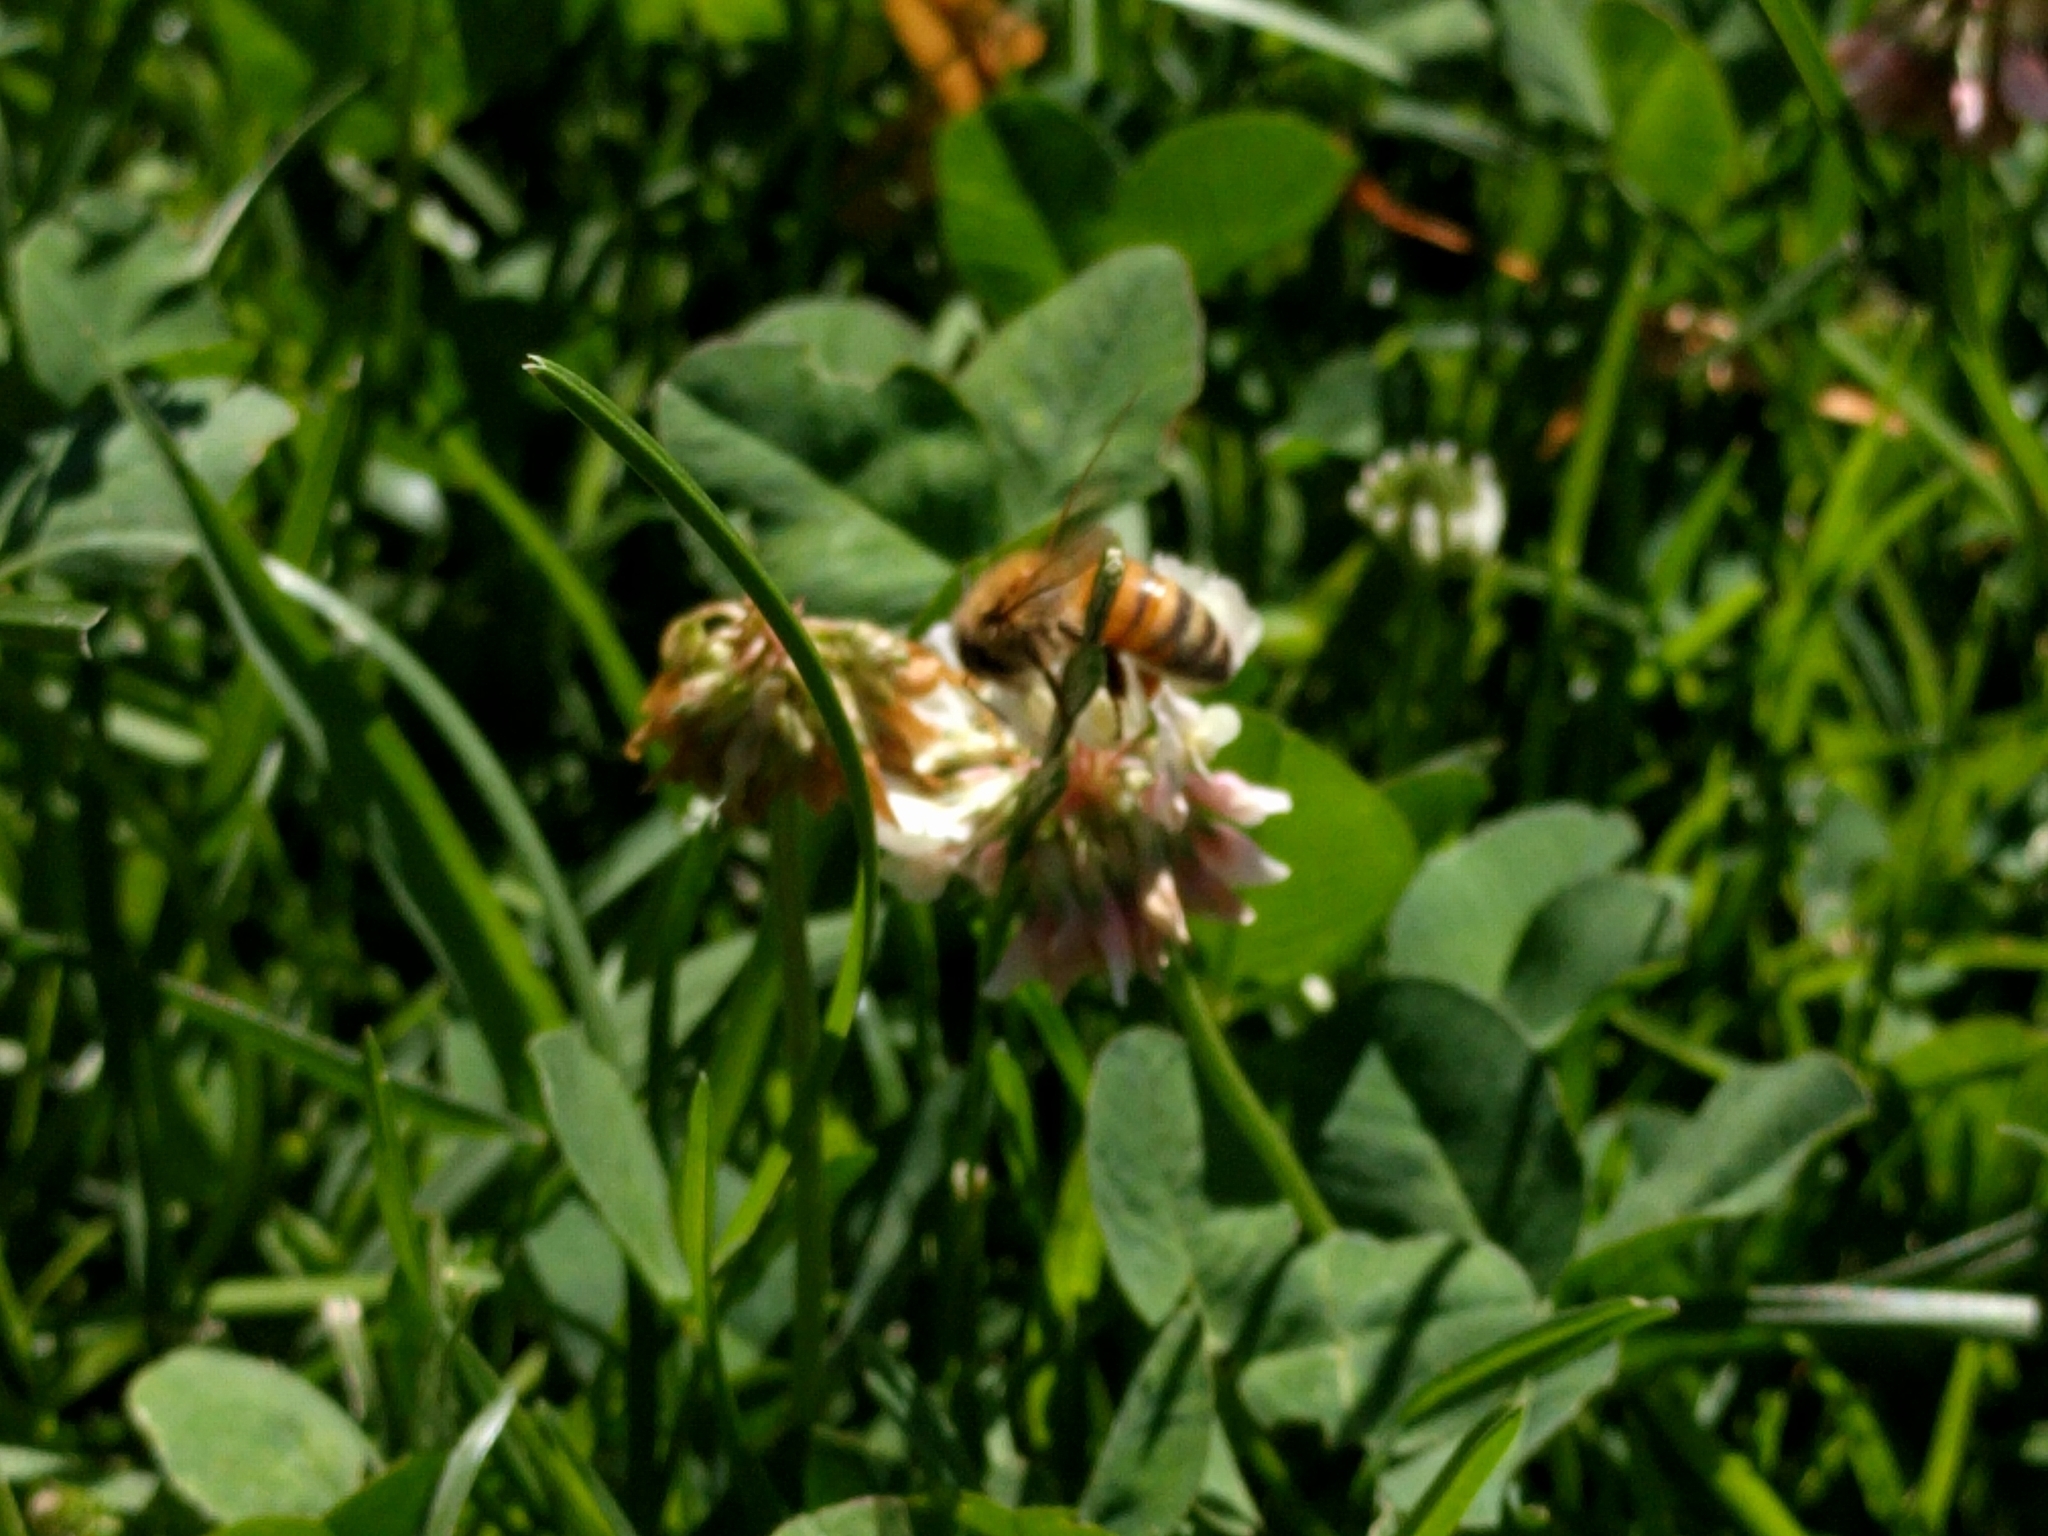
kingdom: Animalia
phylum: Arthropoda
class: Insecta
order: Hymenoptera
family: Apidae
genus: Apis
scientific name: Apis mellifera
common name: Honey bee
